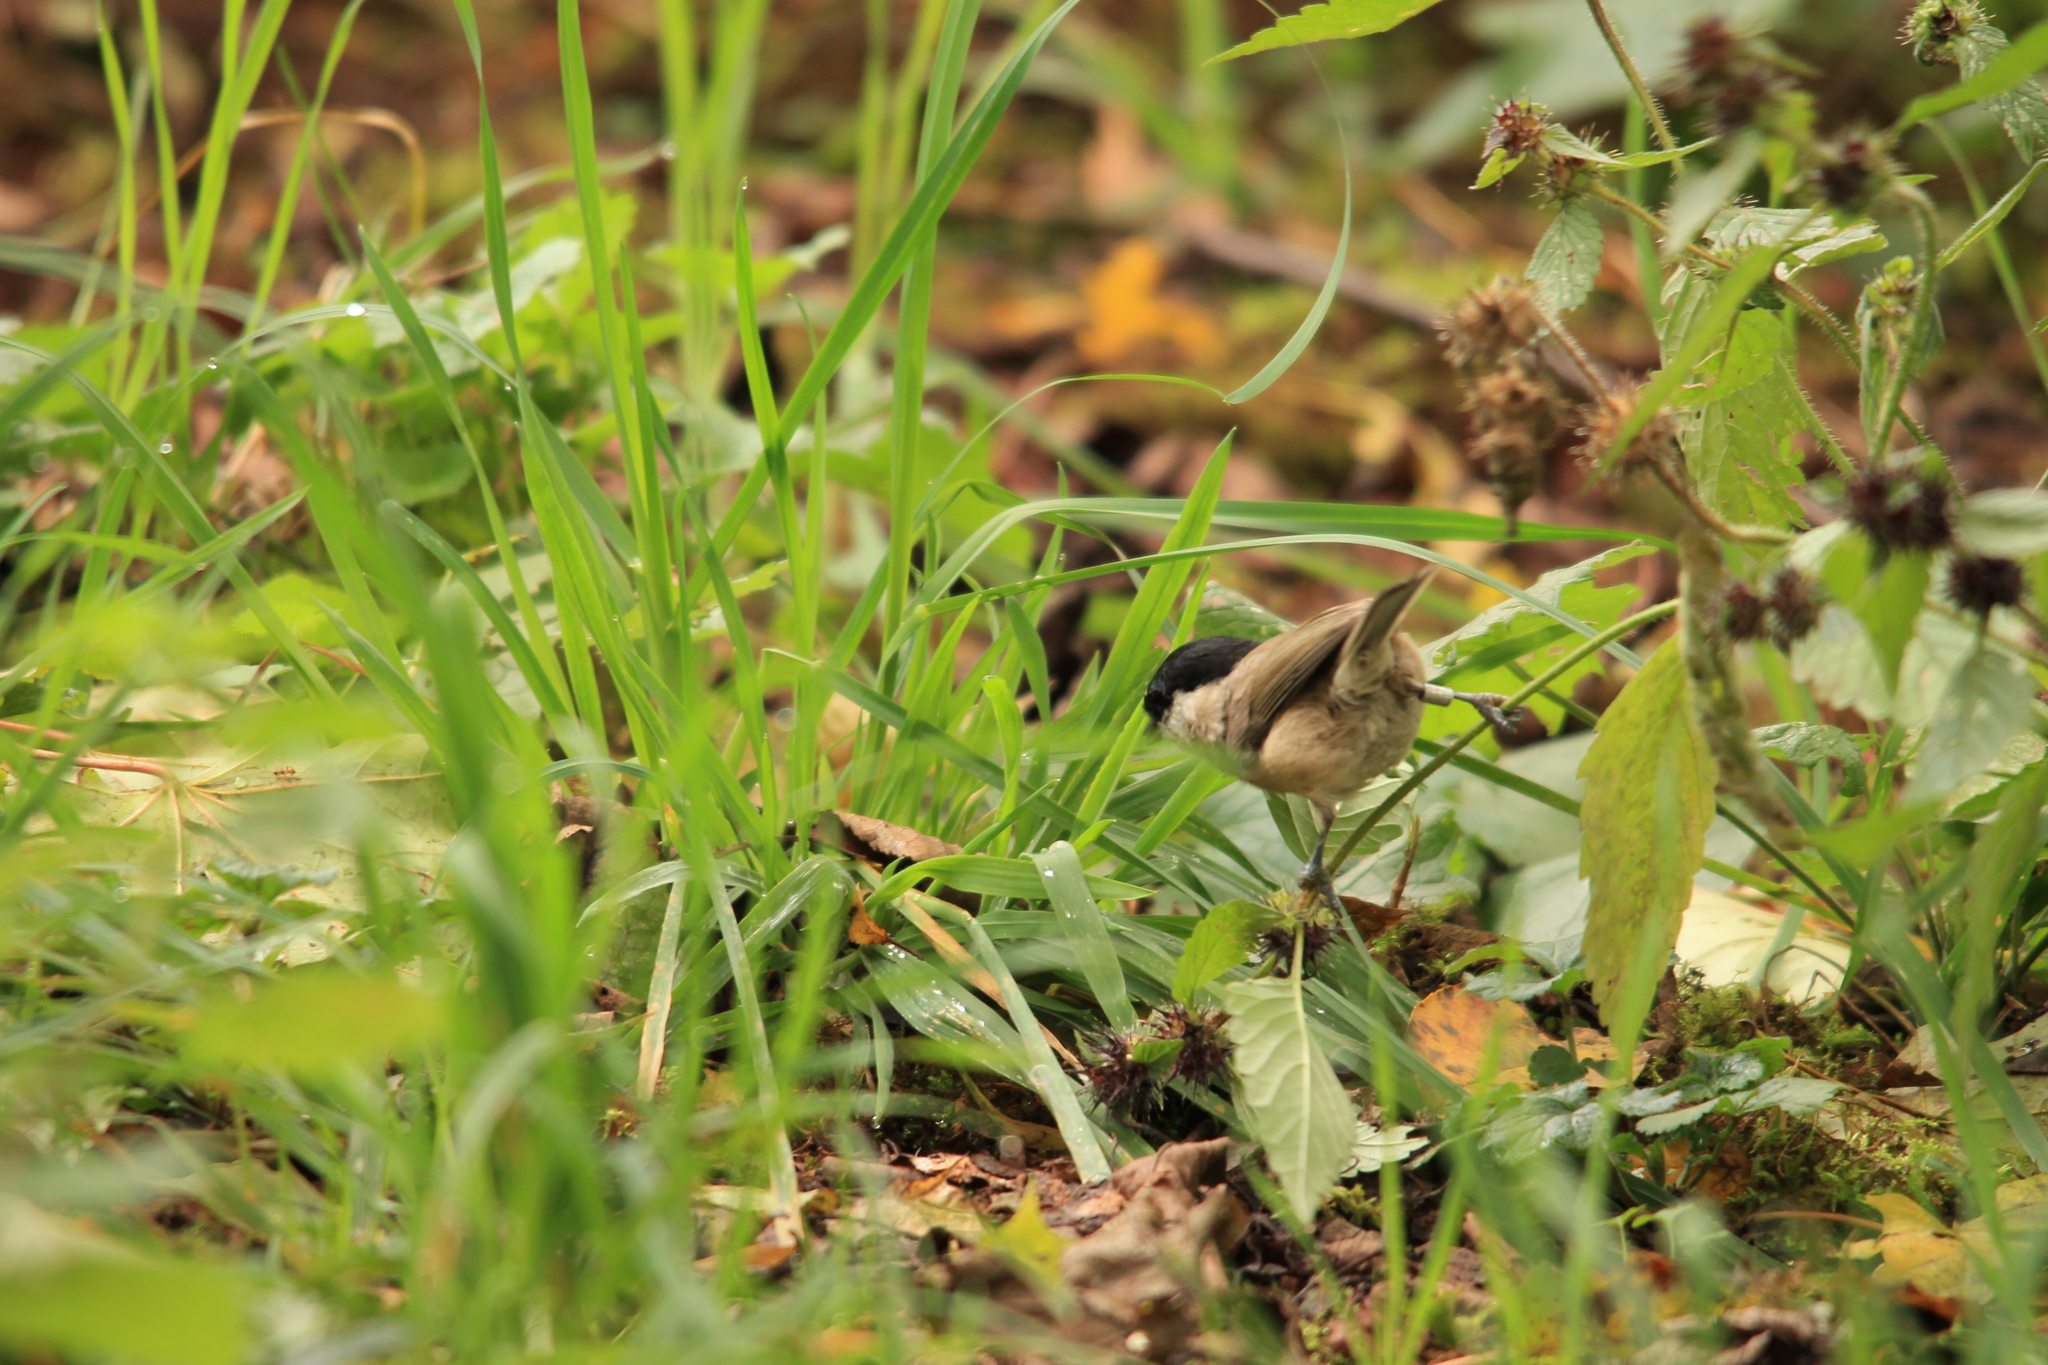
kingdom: Animalia
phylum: Chordata
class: Aves
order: Passeriformes
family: Paridae
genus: Poecile
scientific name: Poecile palustris
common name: Marsh tit
